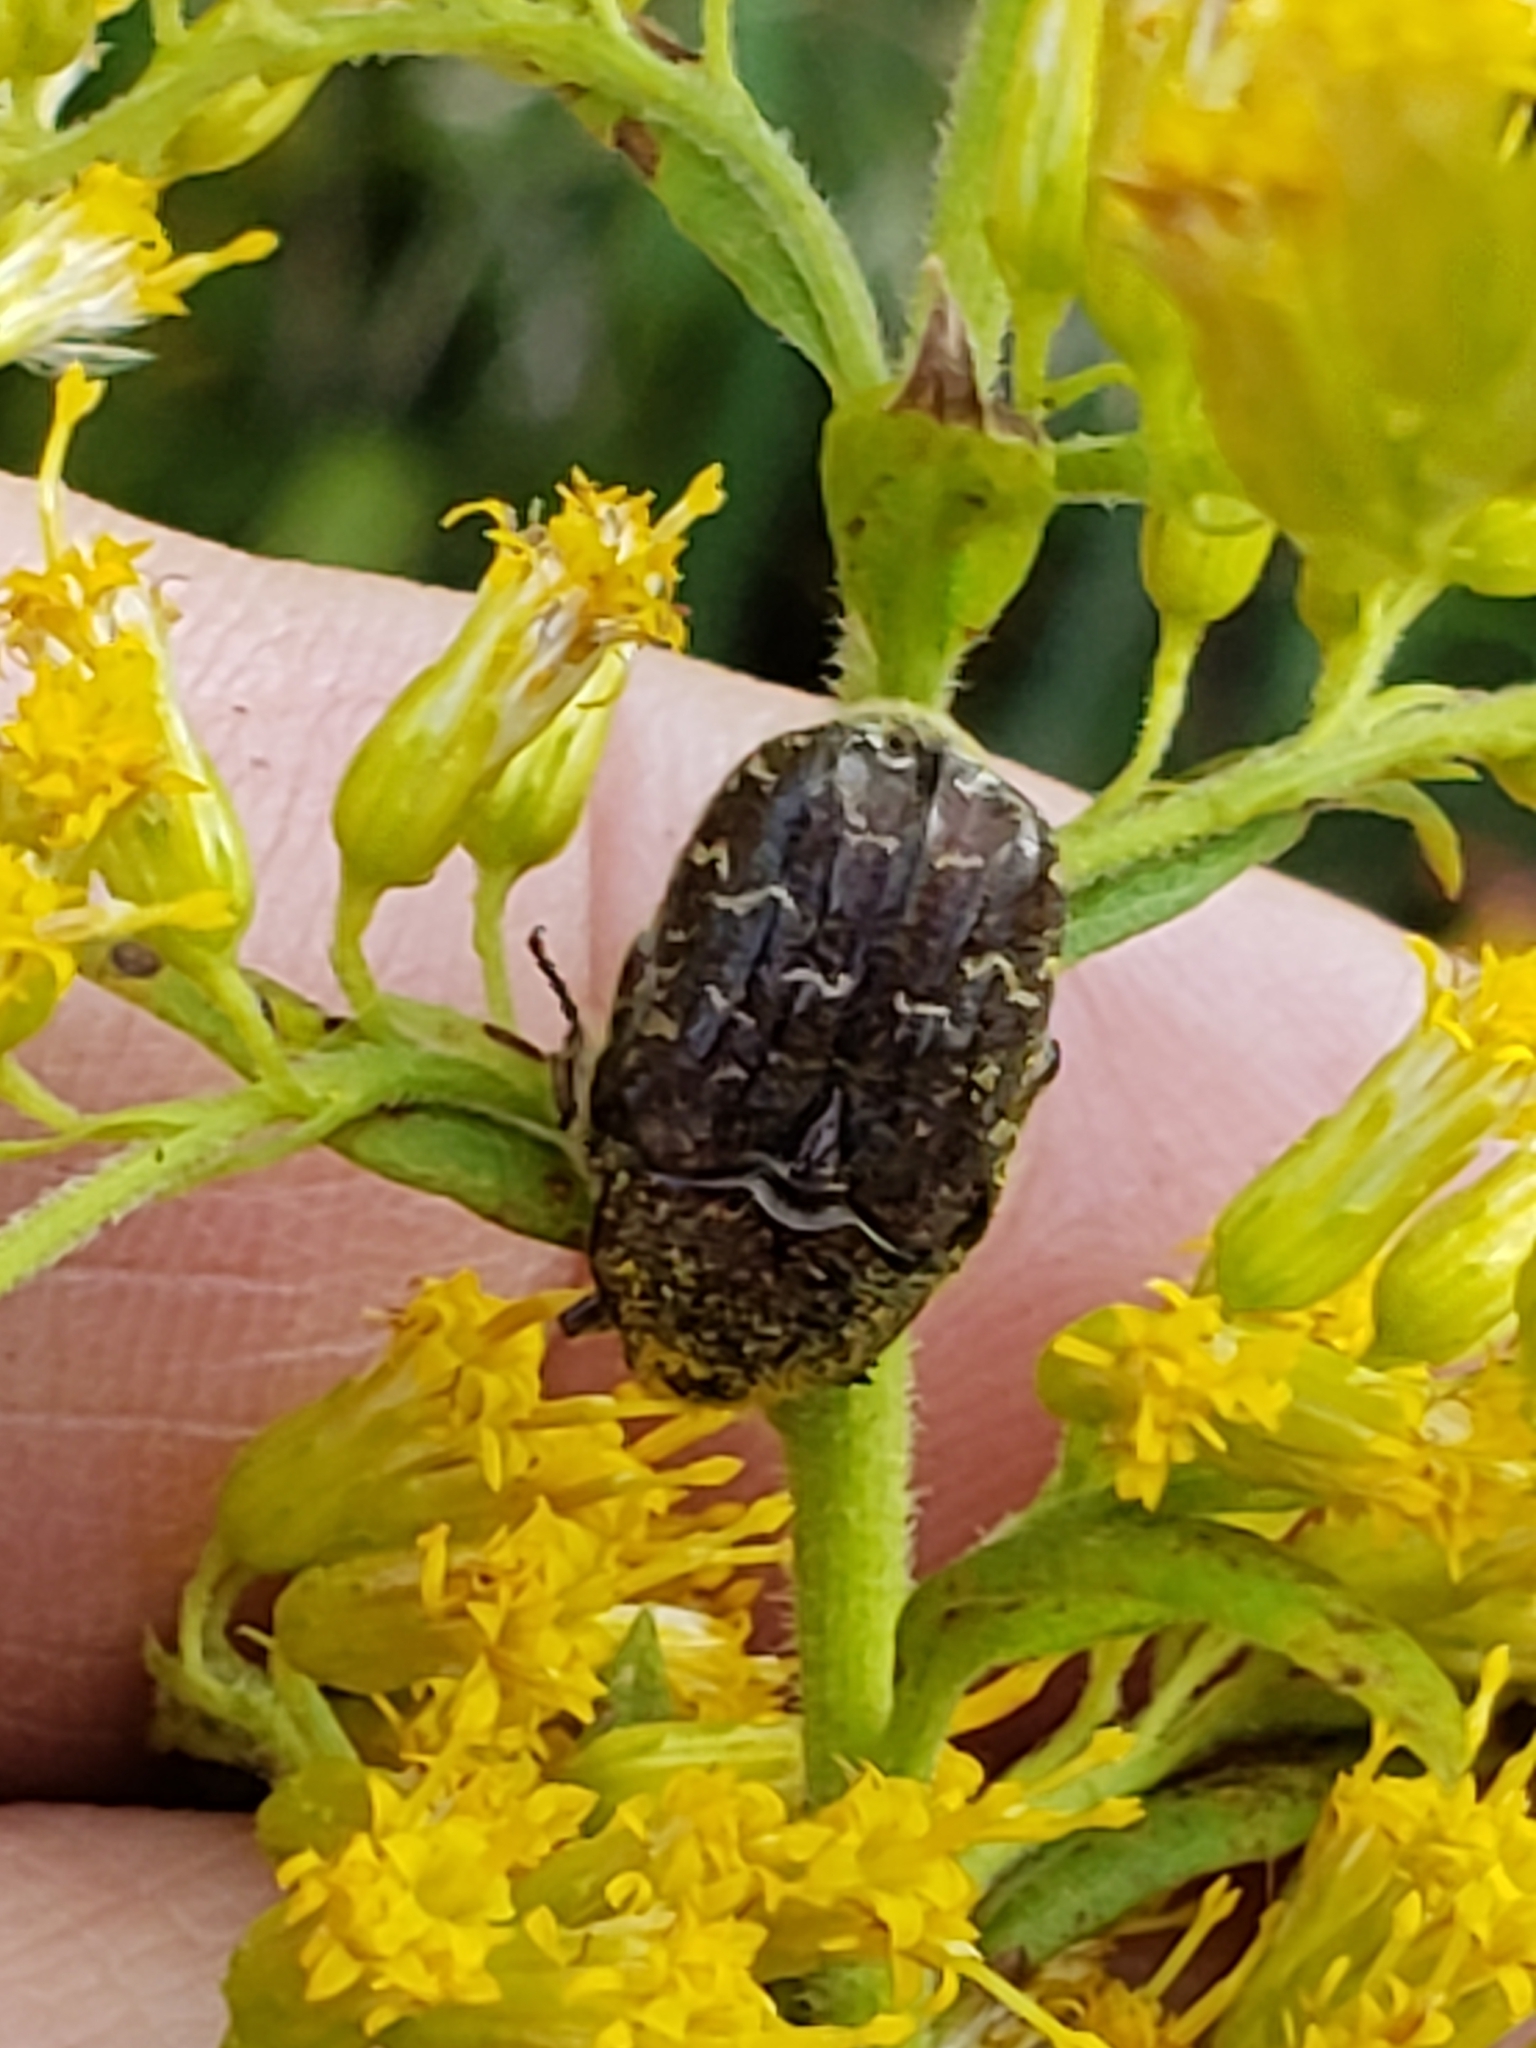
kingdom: Animalia
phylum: Arthropoda
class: Insecta
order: Coleoptera
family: Scarabaeidae
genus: Euphoria
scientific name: Euphoria sepulcralis
